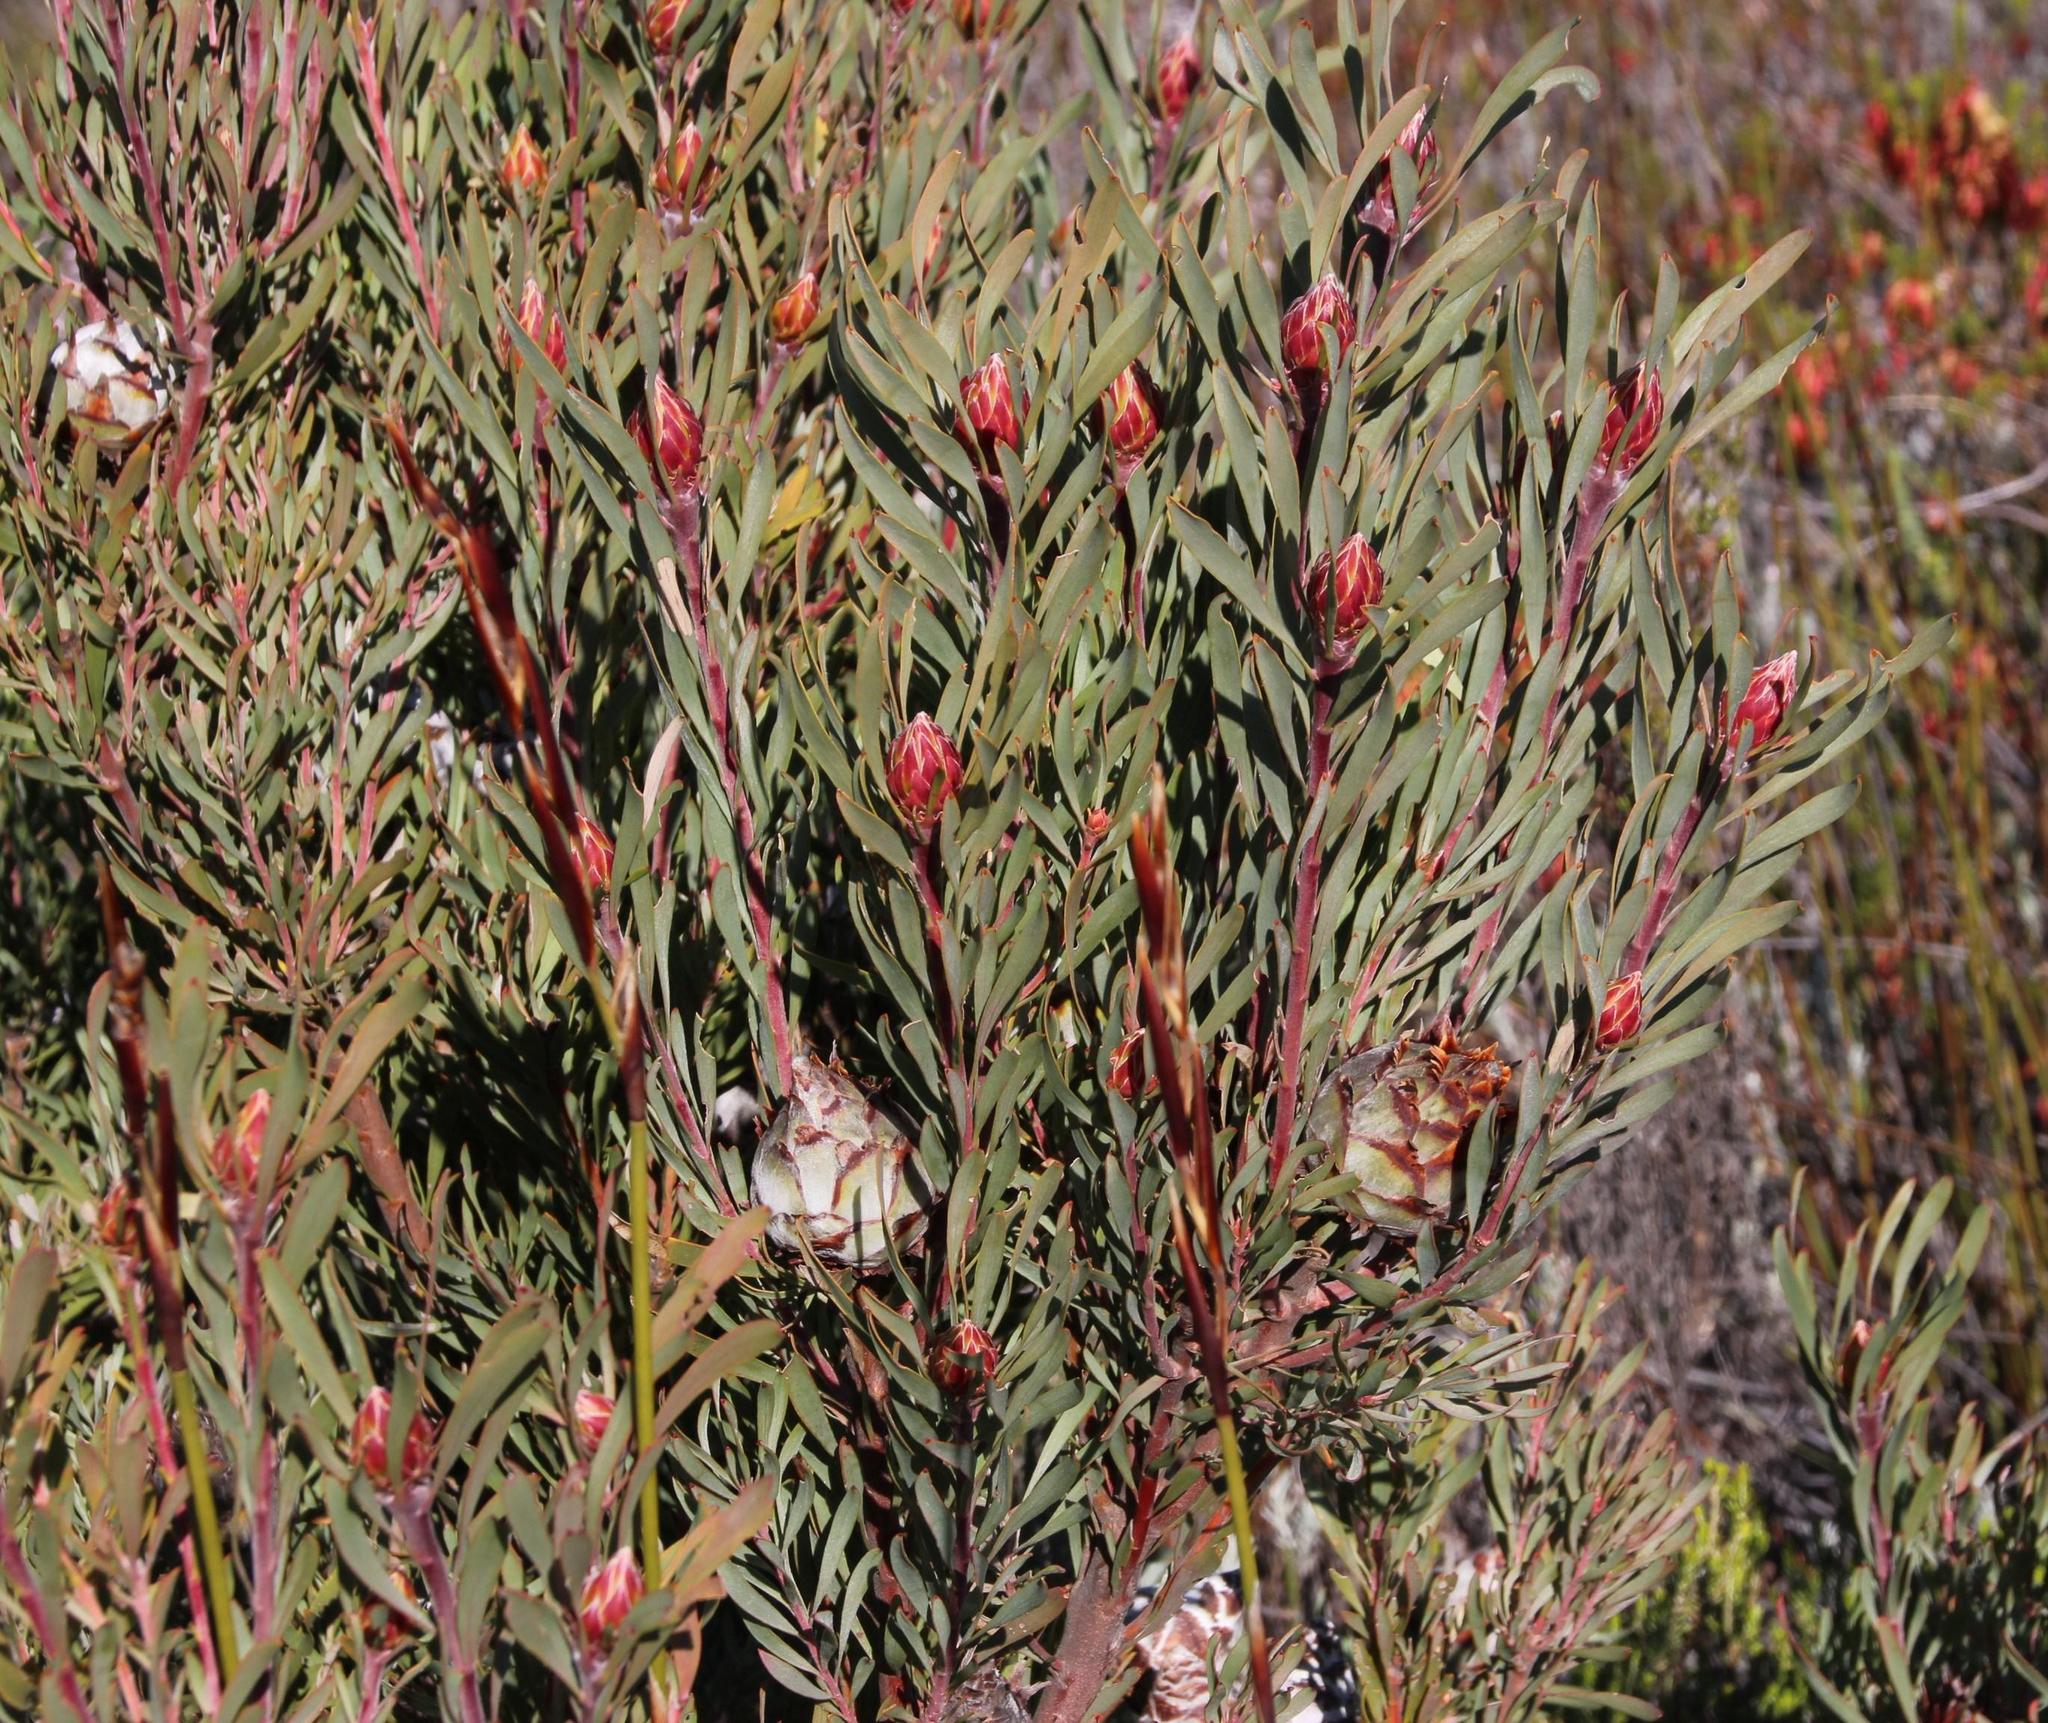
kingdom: Plantae
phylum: Tracheophyta
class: Magnoliopsida
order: Proteales
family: Proteaceae
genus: Leucadendron
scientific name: Leucadendron rubrum
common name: Spinning top
